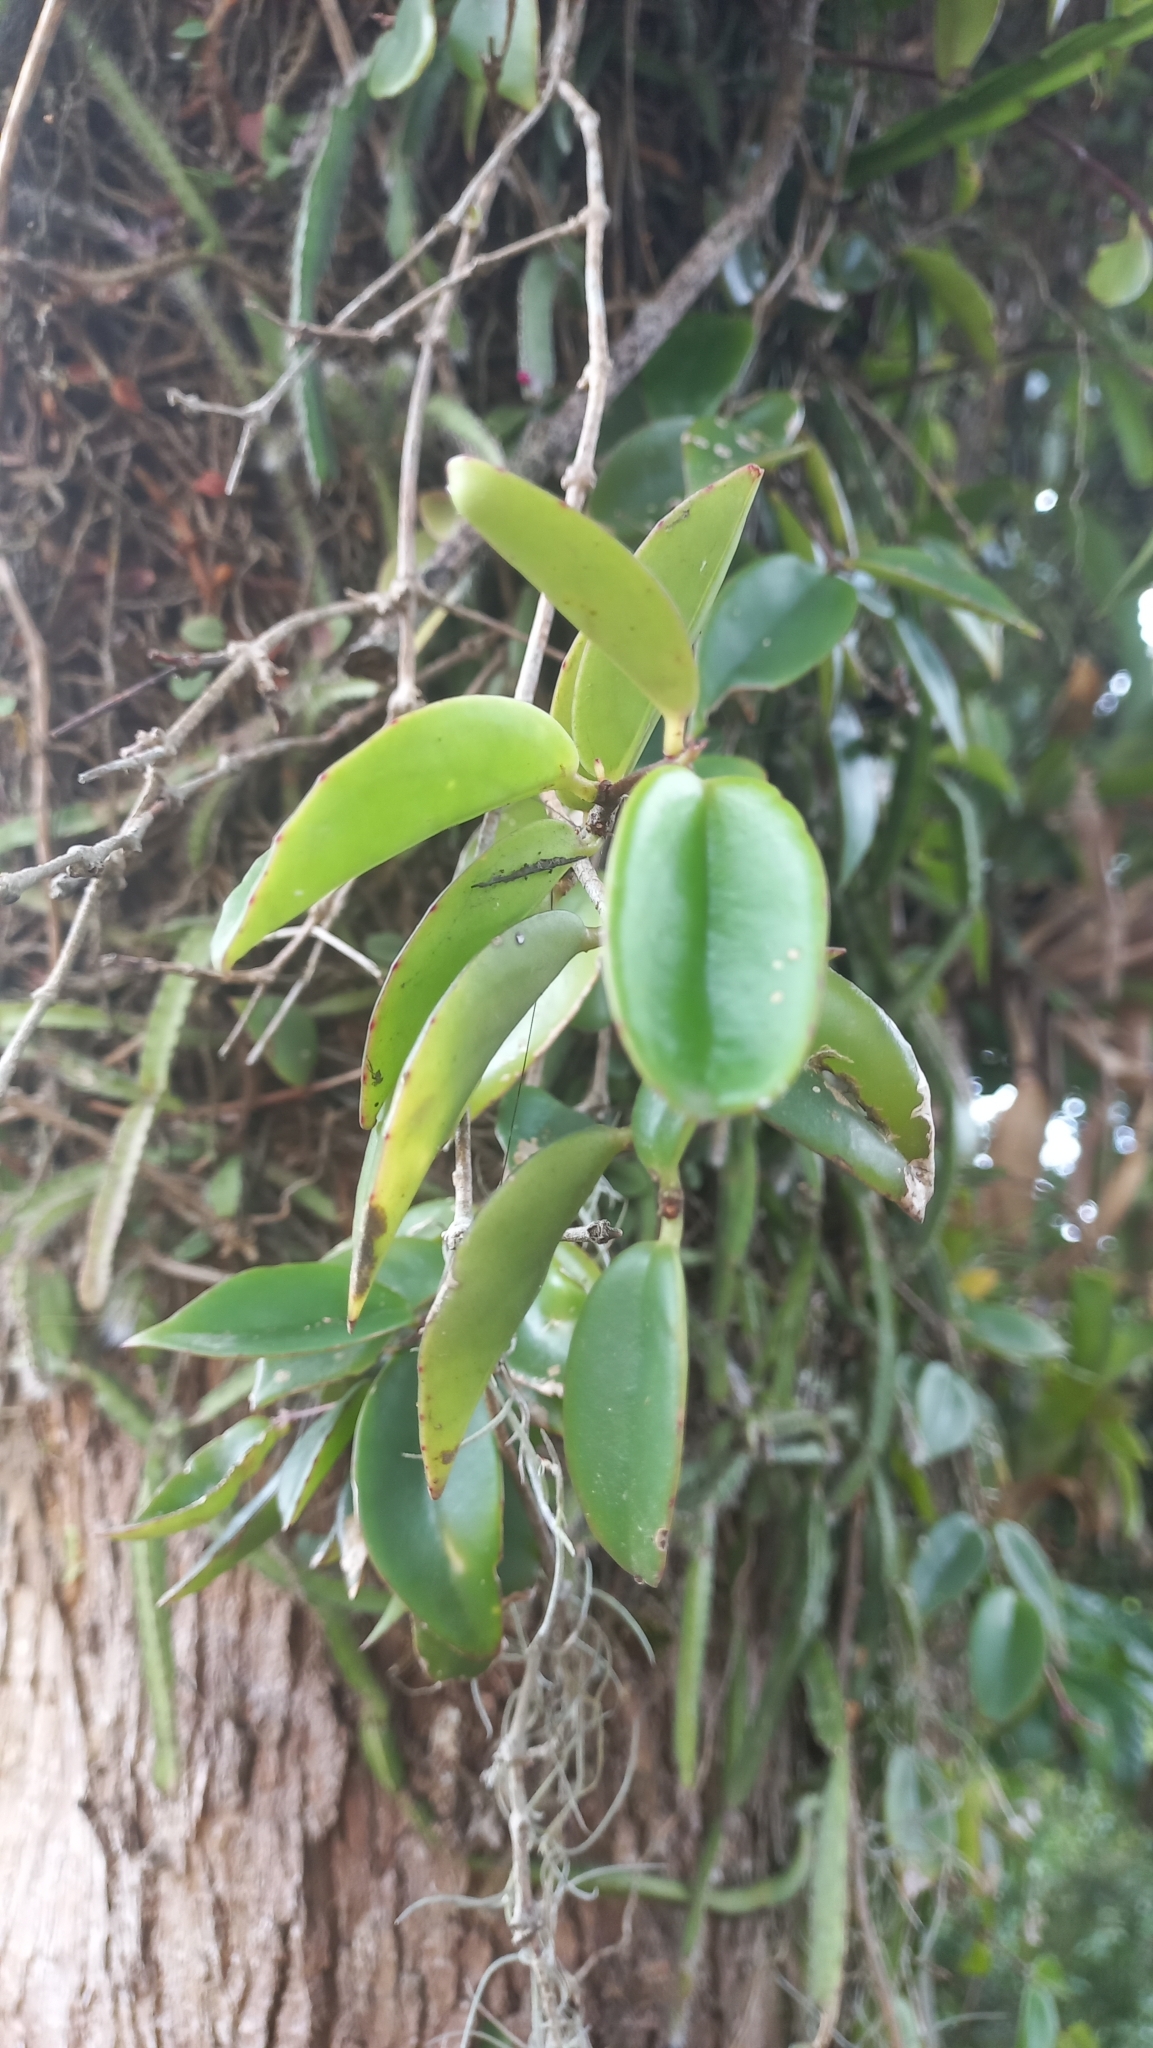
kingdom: Plantae
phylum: Tracheophyta
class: Magnoliopsida
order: Lamiales
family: Gesneriaceae
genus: Codonanthe
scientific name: Codonanthe gracilis
